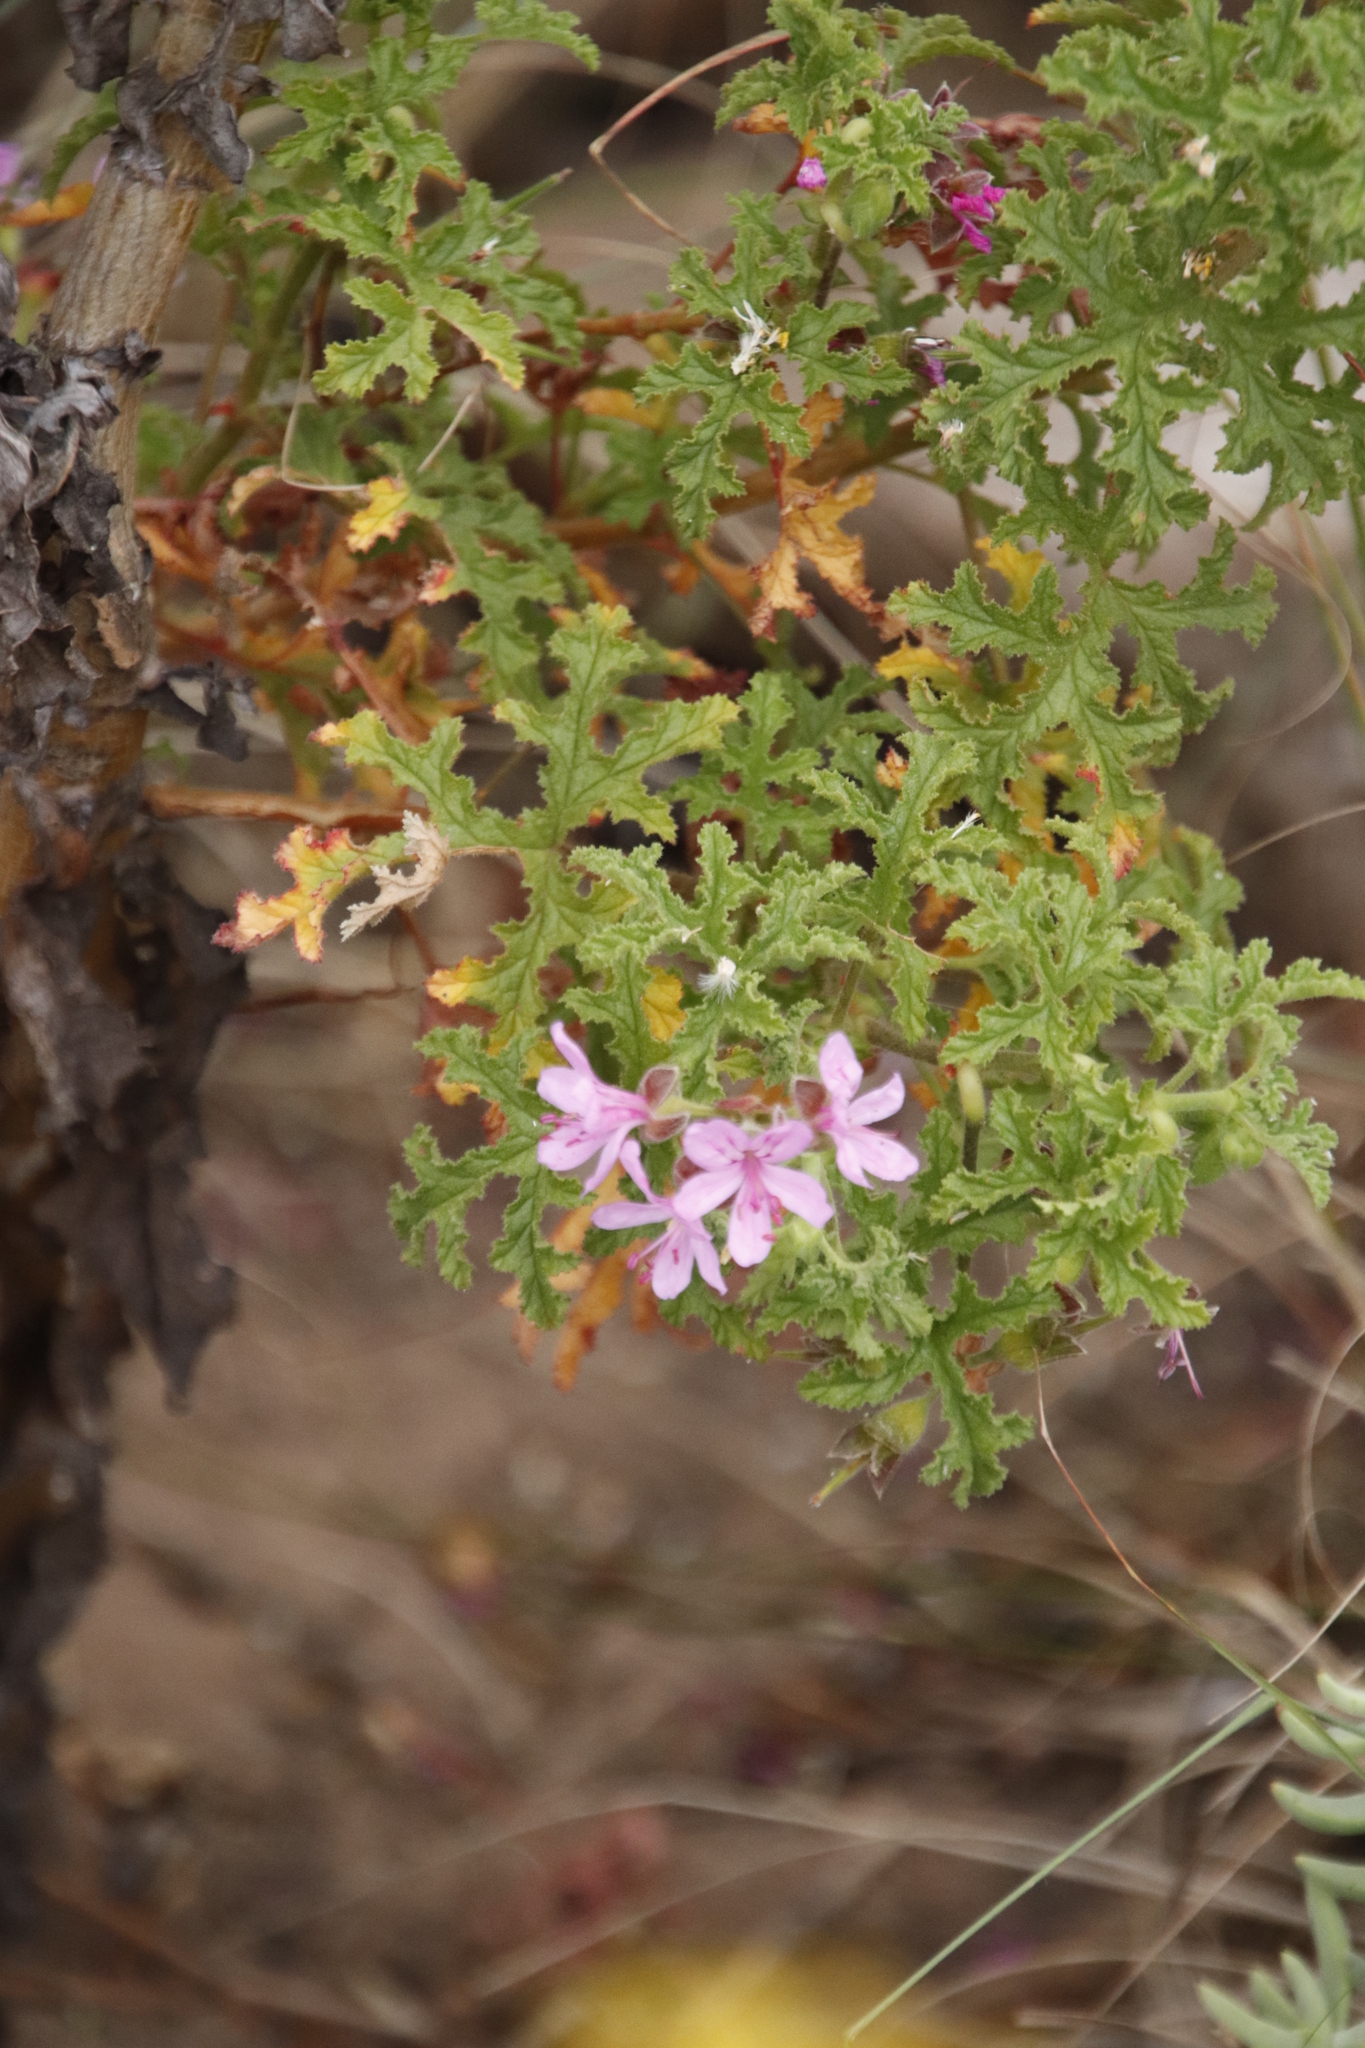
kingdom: Plantae
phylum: Tracheophyta
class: Magnoliopsida
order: Geraniales
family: Geraniaceae
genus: Pelargonium
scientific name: Pelargonium quercifolium
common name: Oakleaf geranium
